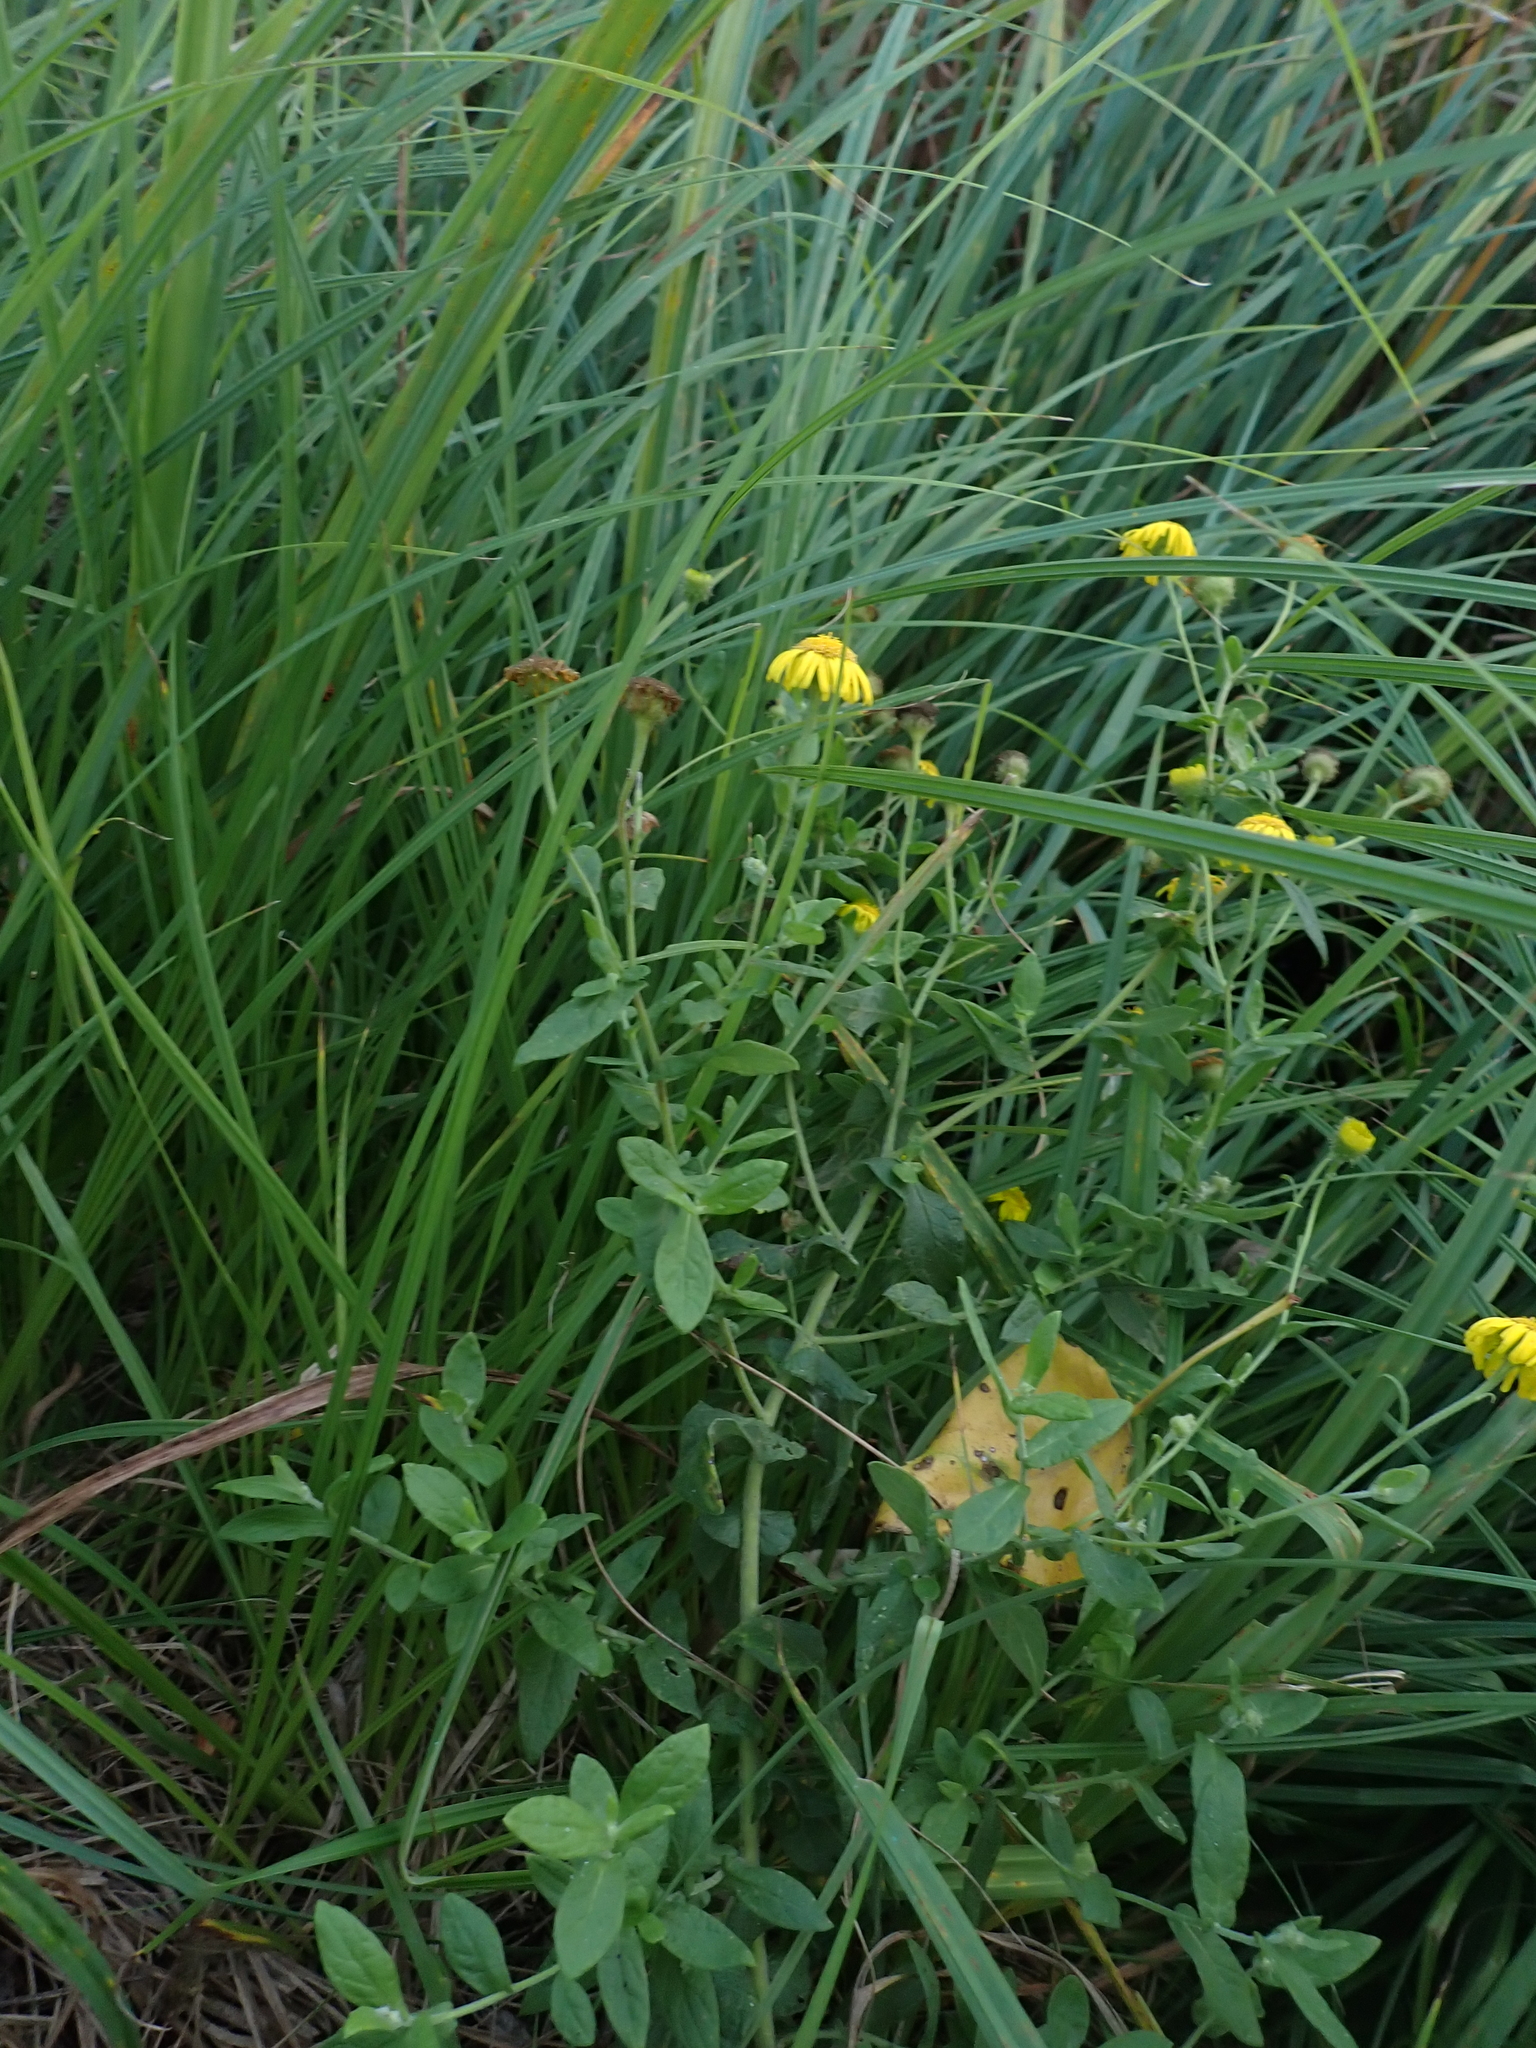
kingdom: Plantae
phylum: Tracheophyta
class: Magnoliopsida
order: Asterales
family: Asteraceae
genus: Pulicaria
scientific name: Pulicaria dysenterica
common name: Common fleabane
